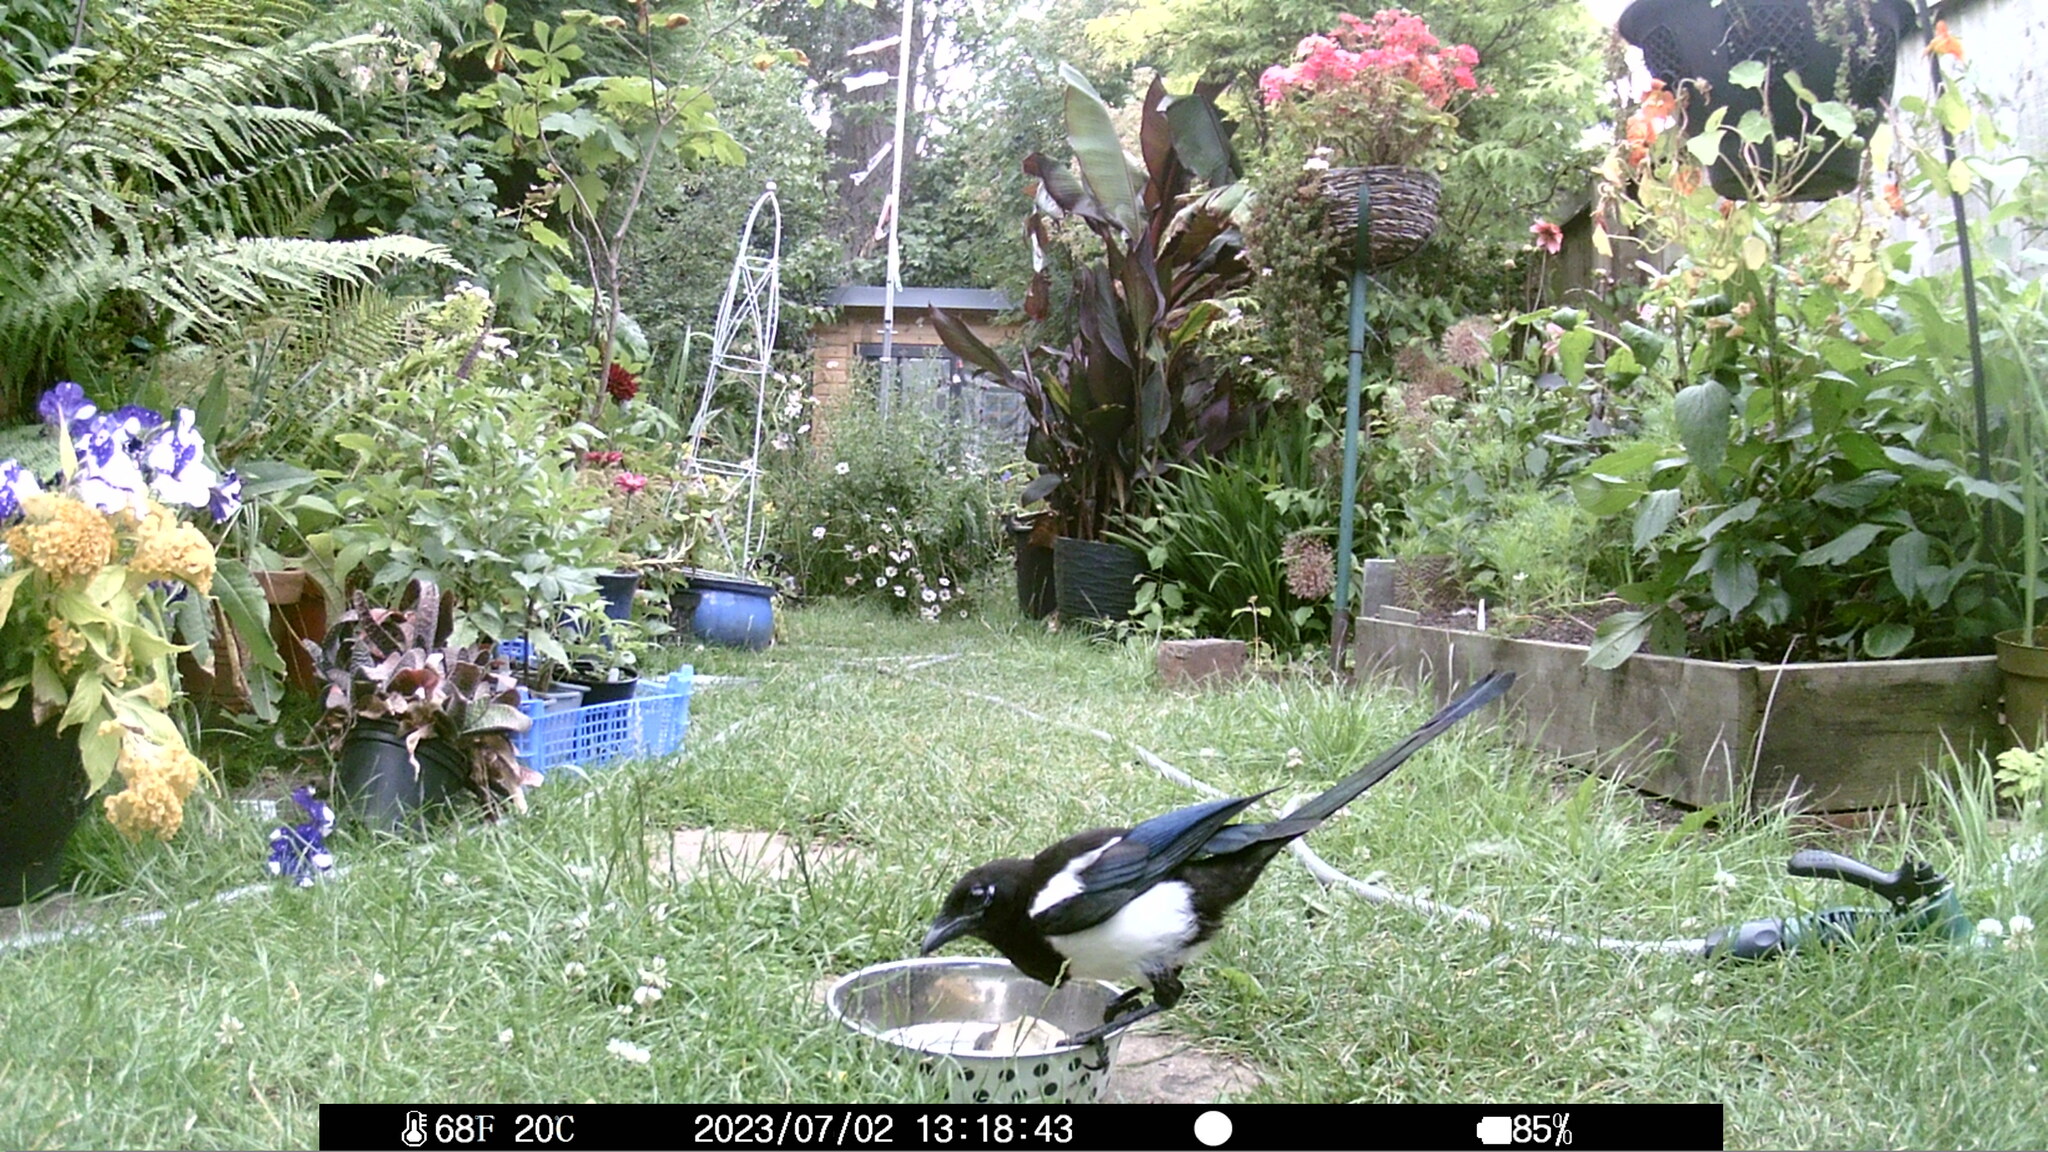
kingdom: Animalia
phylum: Chordata
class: Aves
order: Passeriformes
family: Corvidae
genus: Pica
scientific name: Pica pica
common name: Eurasian magpie
